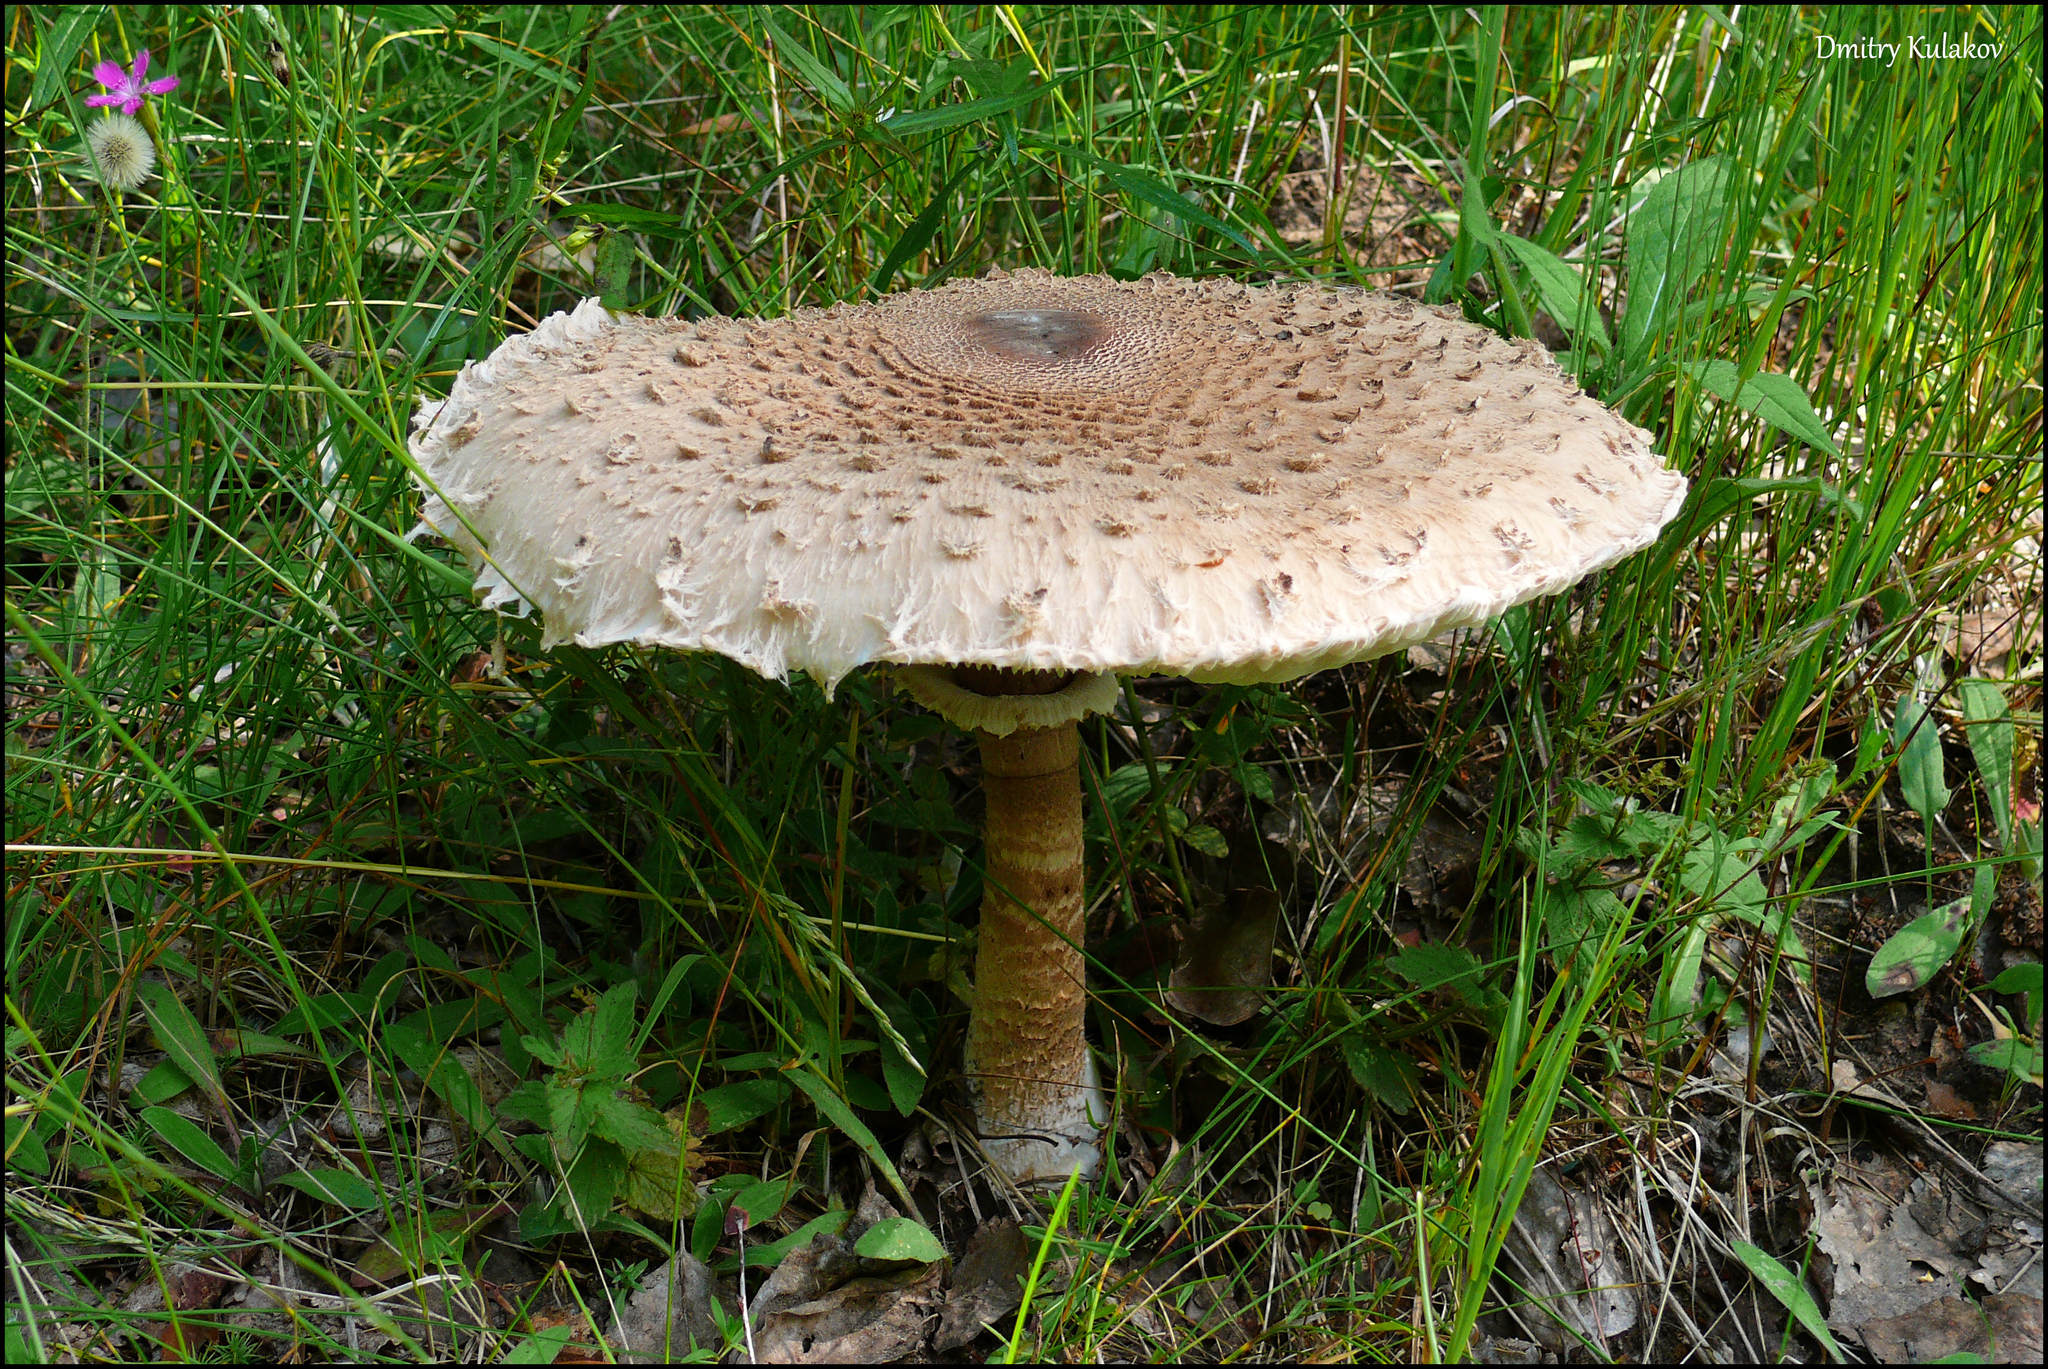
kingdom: Fungi
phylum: Basidiomycota
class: Agaricomycetes
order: Agaricales
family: Agaricaceae
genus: Macrolepiota
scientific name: Macrolepiota procera
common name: Parasol
